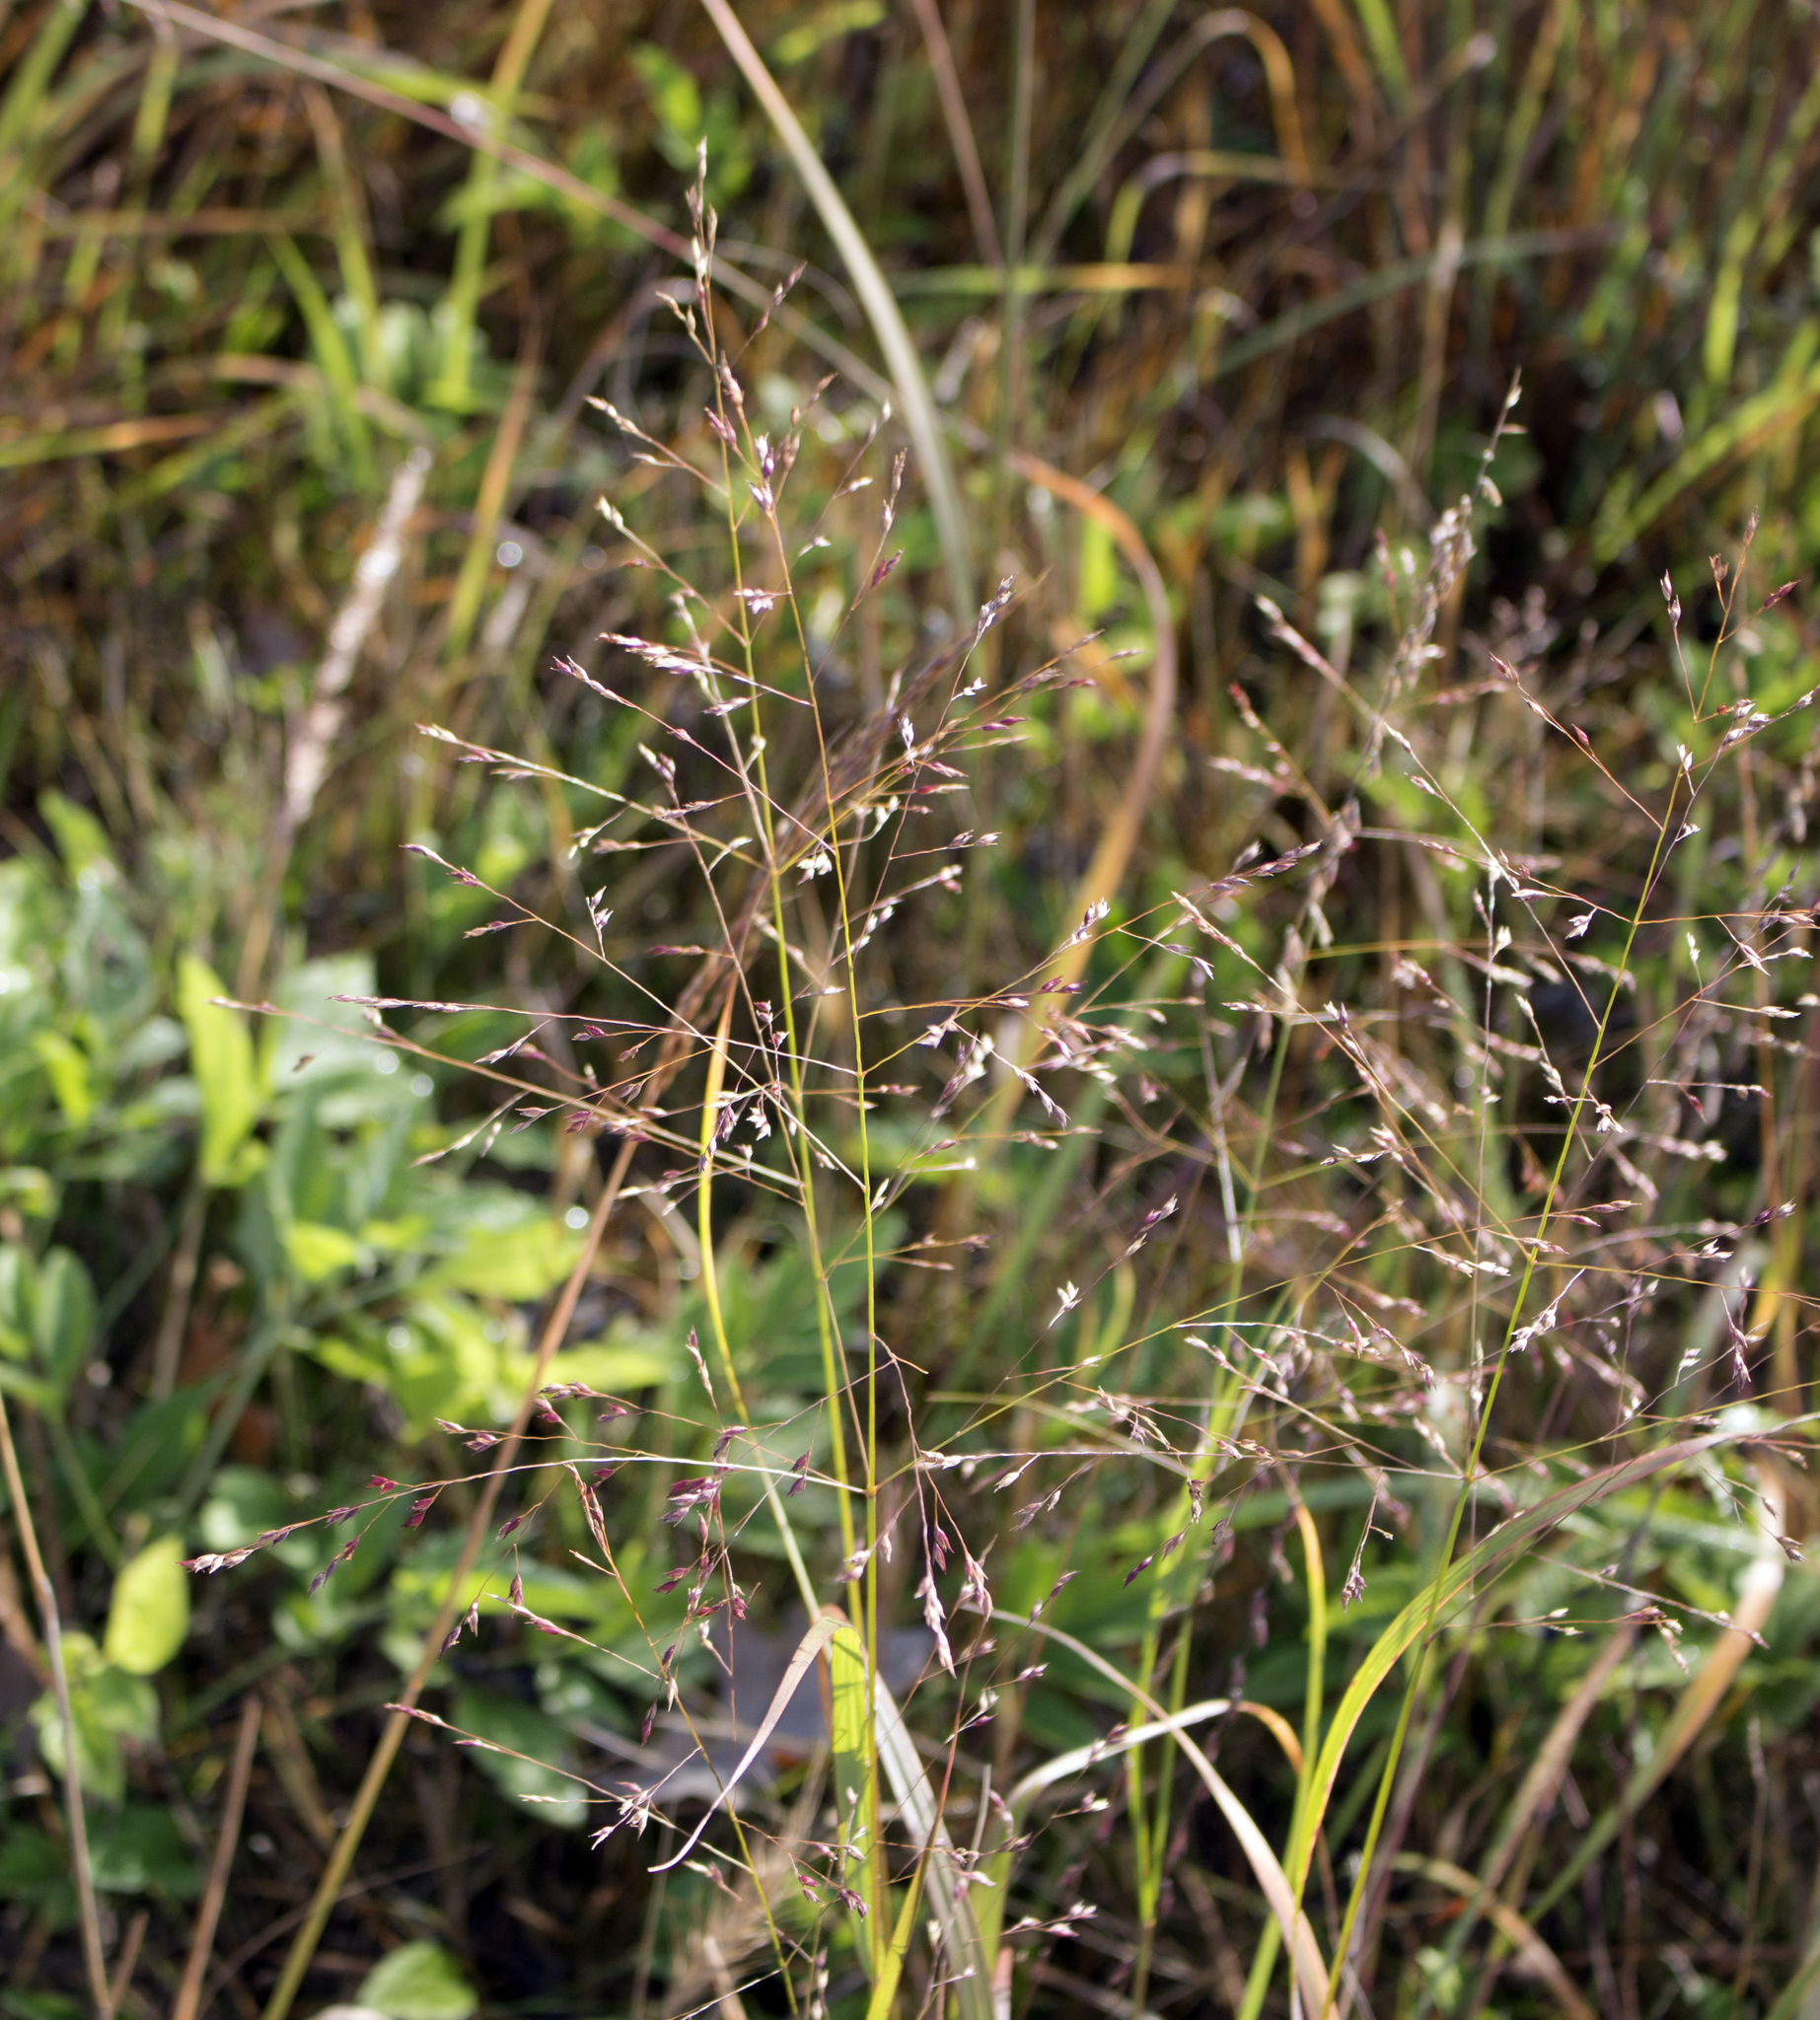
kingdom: Plantae
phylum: Tracheophyta
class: Liliopsida
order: Poales
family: Poaceae
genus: Panicum
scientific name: Panicum virgatum
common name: Switchgrass
